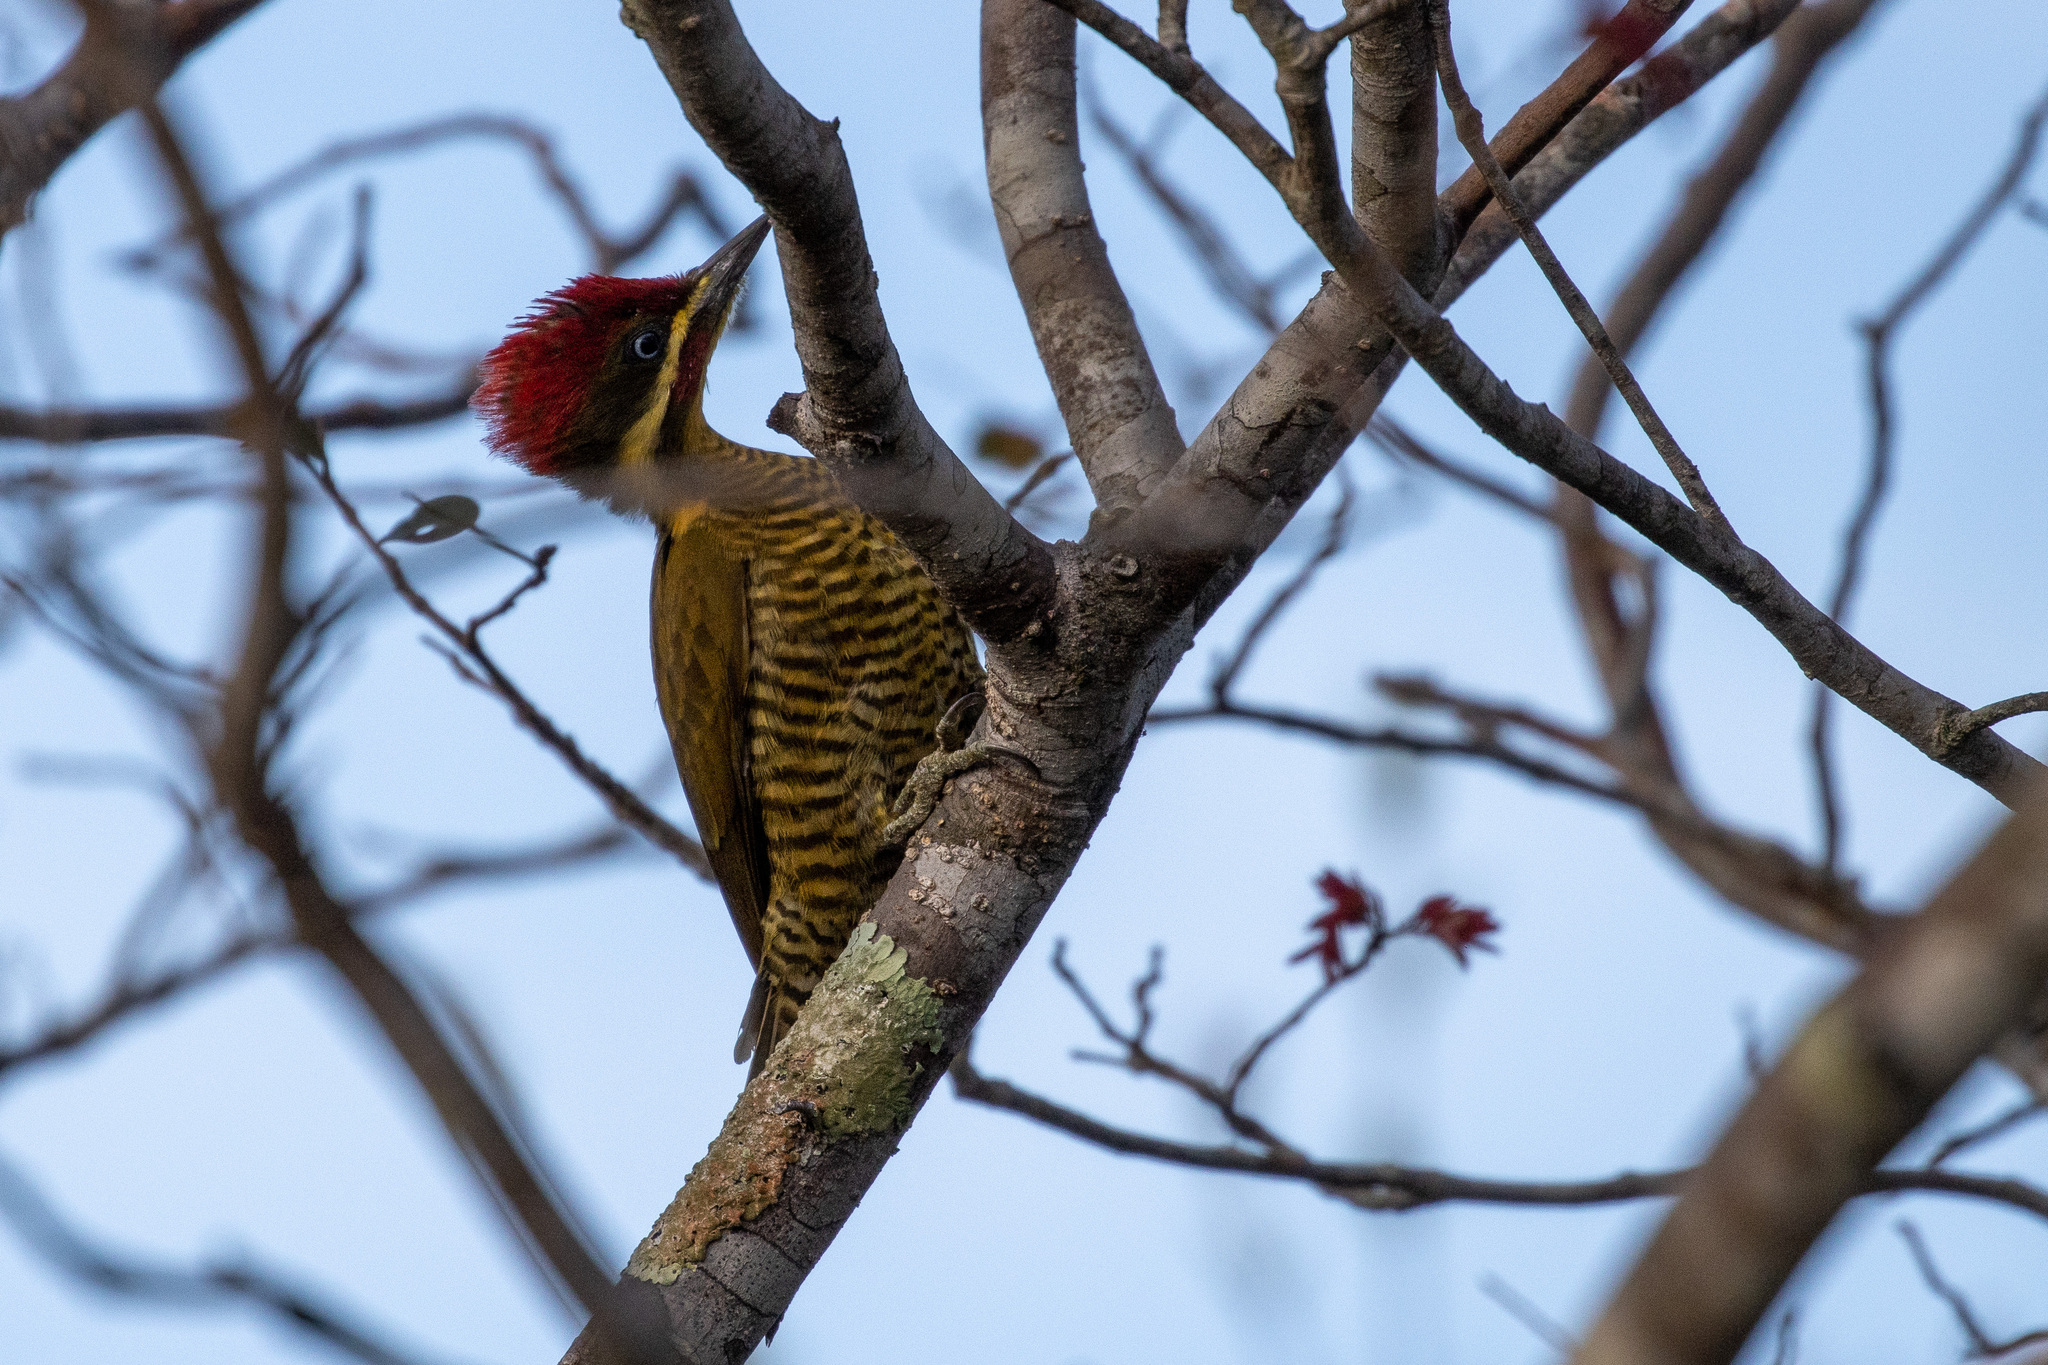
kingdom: Animalia
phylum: Chordata
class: Aves
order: Piciformes
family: Picidae
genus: Piculus
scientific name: Piculus chrysochloros
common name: Golden-green woodpecker
